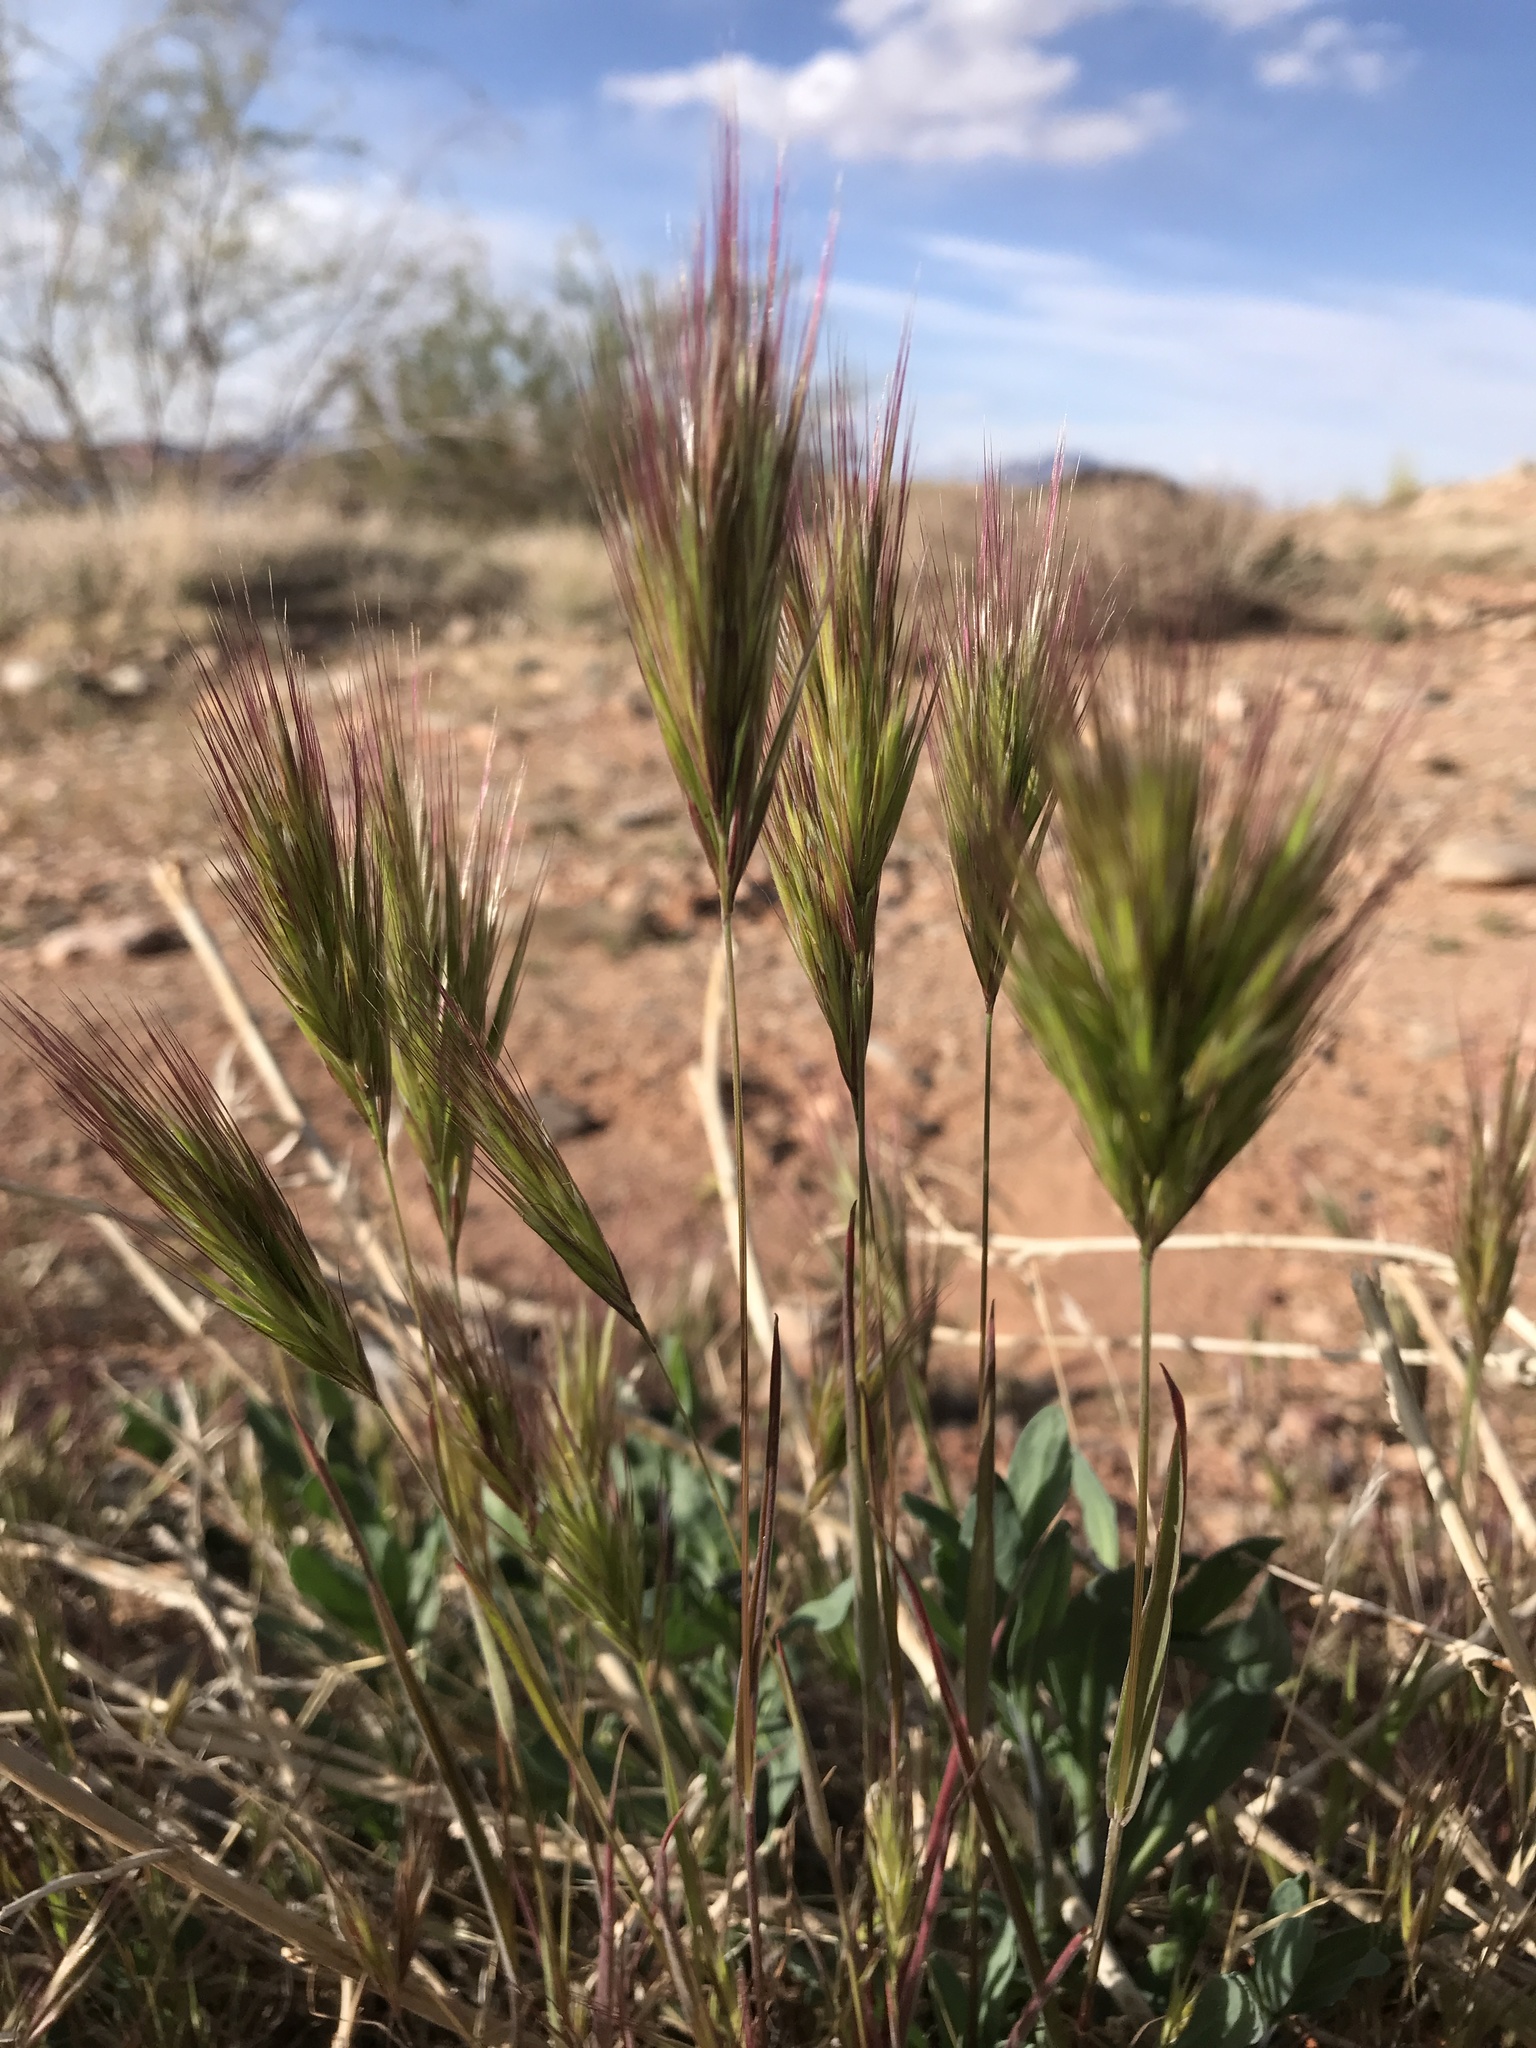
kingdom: Plantae
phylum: Tracheophyta
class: Liliopsida
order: Poales
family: Poaceae
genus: Bromus
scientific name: Bromus rubens
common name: Red brome
